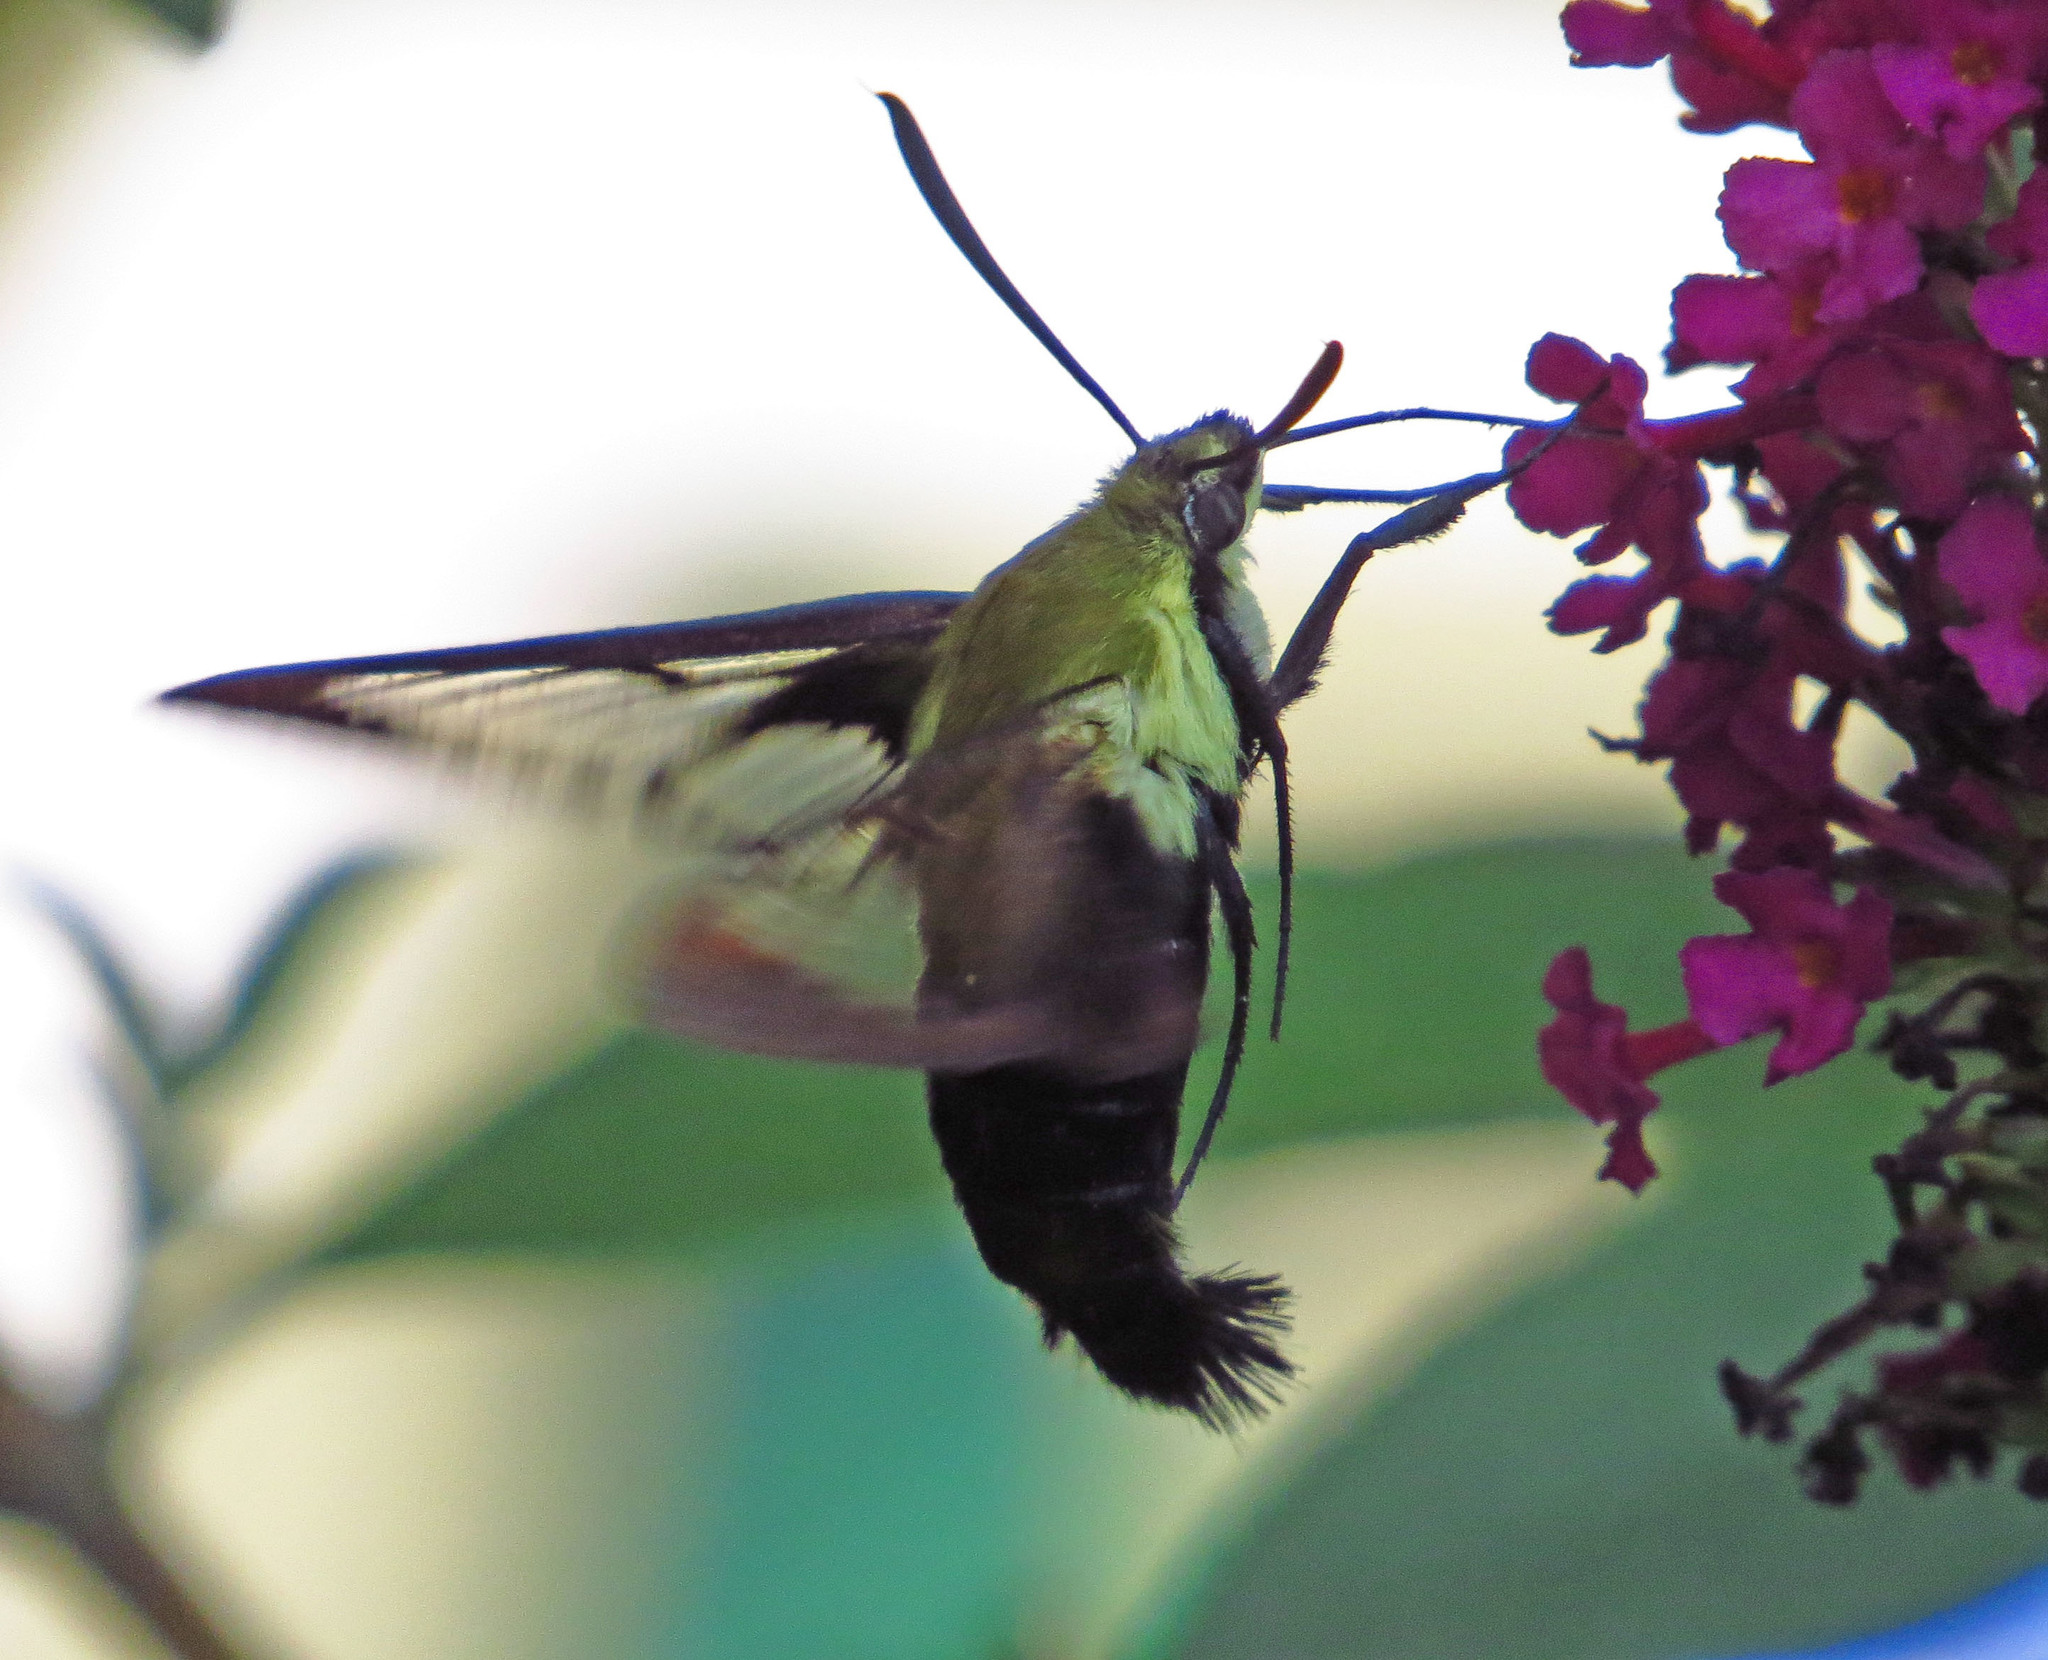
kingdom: Animalia
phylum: Arthropoda
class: Insecta
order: Lepidoptera
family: Sphingidae
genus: Hemaris
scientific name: Hemaris diffinis
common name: Bumblebee moth
